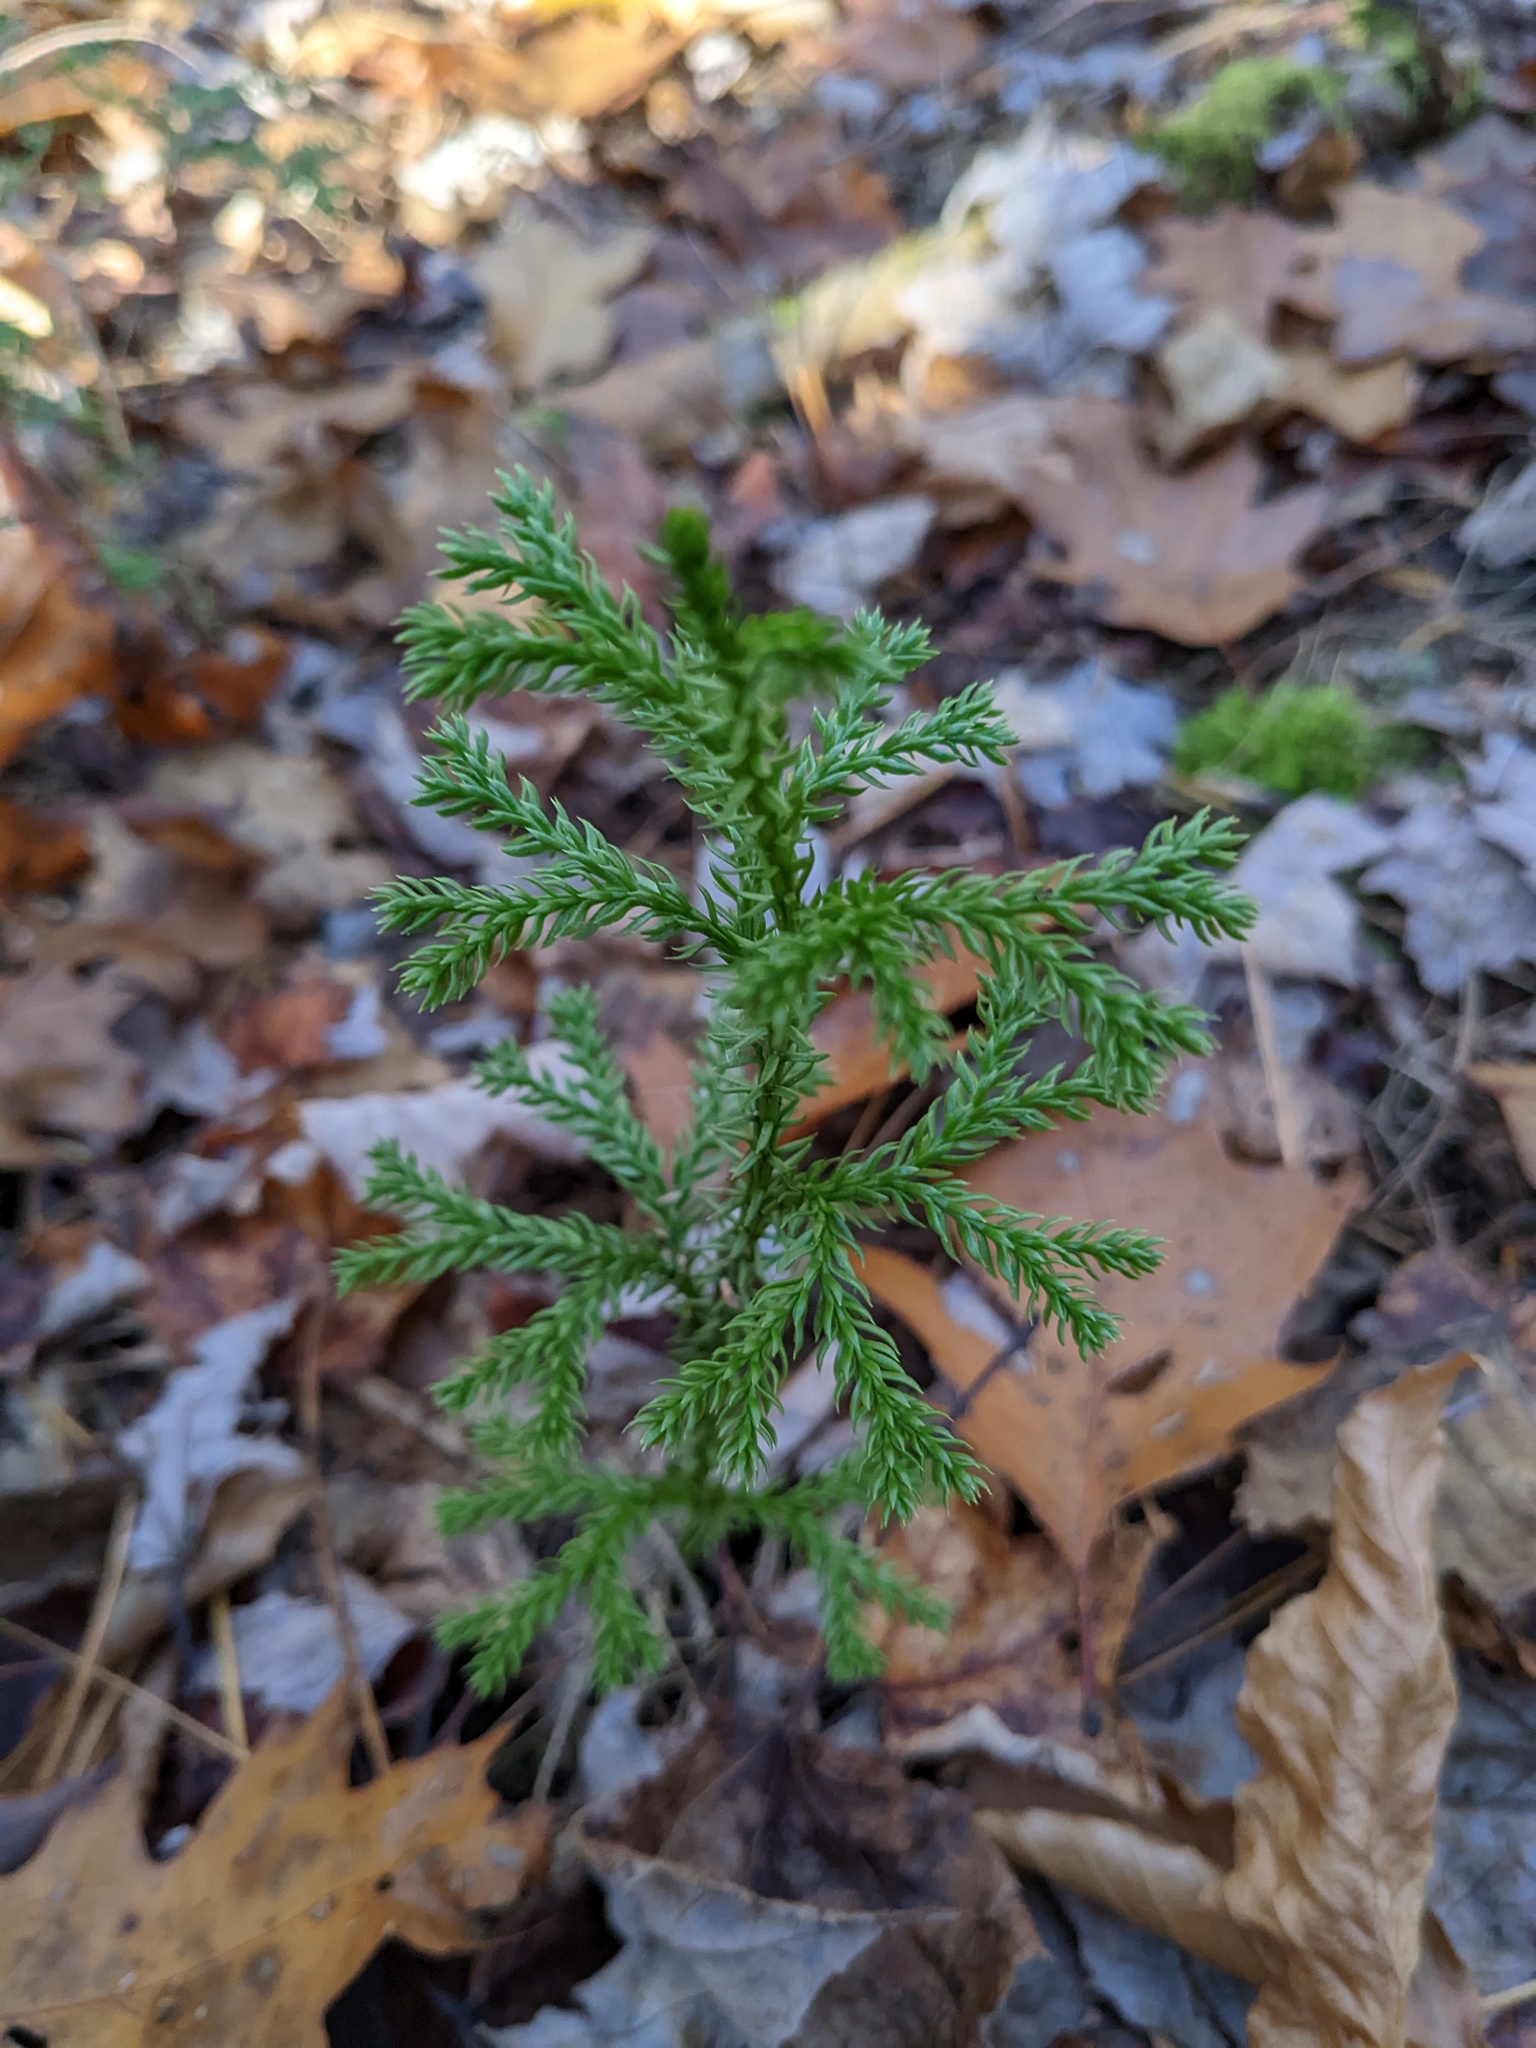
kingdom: Plantae
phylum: Tracheophyta
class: Lycopodiopsida
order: Lycopodiales
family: Lycopodiaceae
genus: Dendrolycopodium
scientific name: Dendrolycopodium dendroideum
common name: Northern tree-clubmoss
